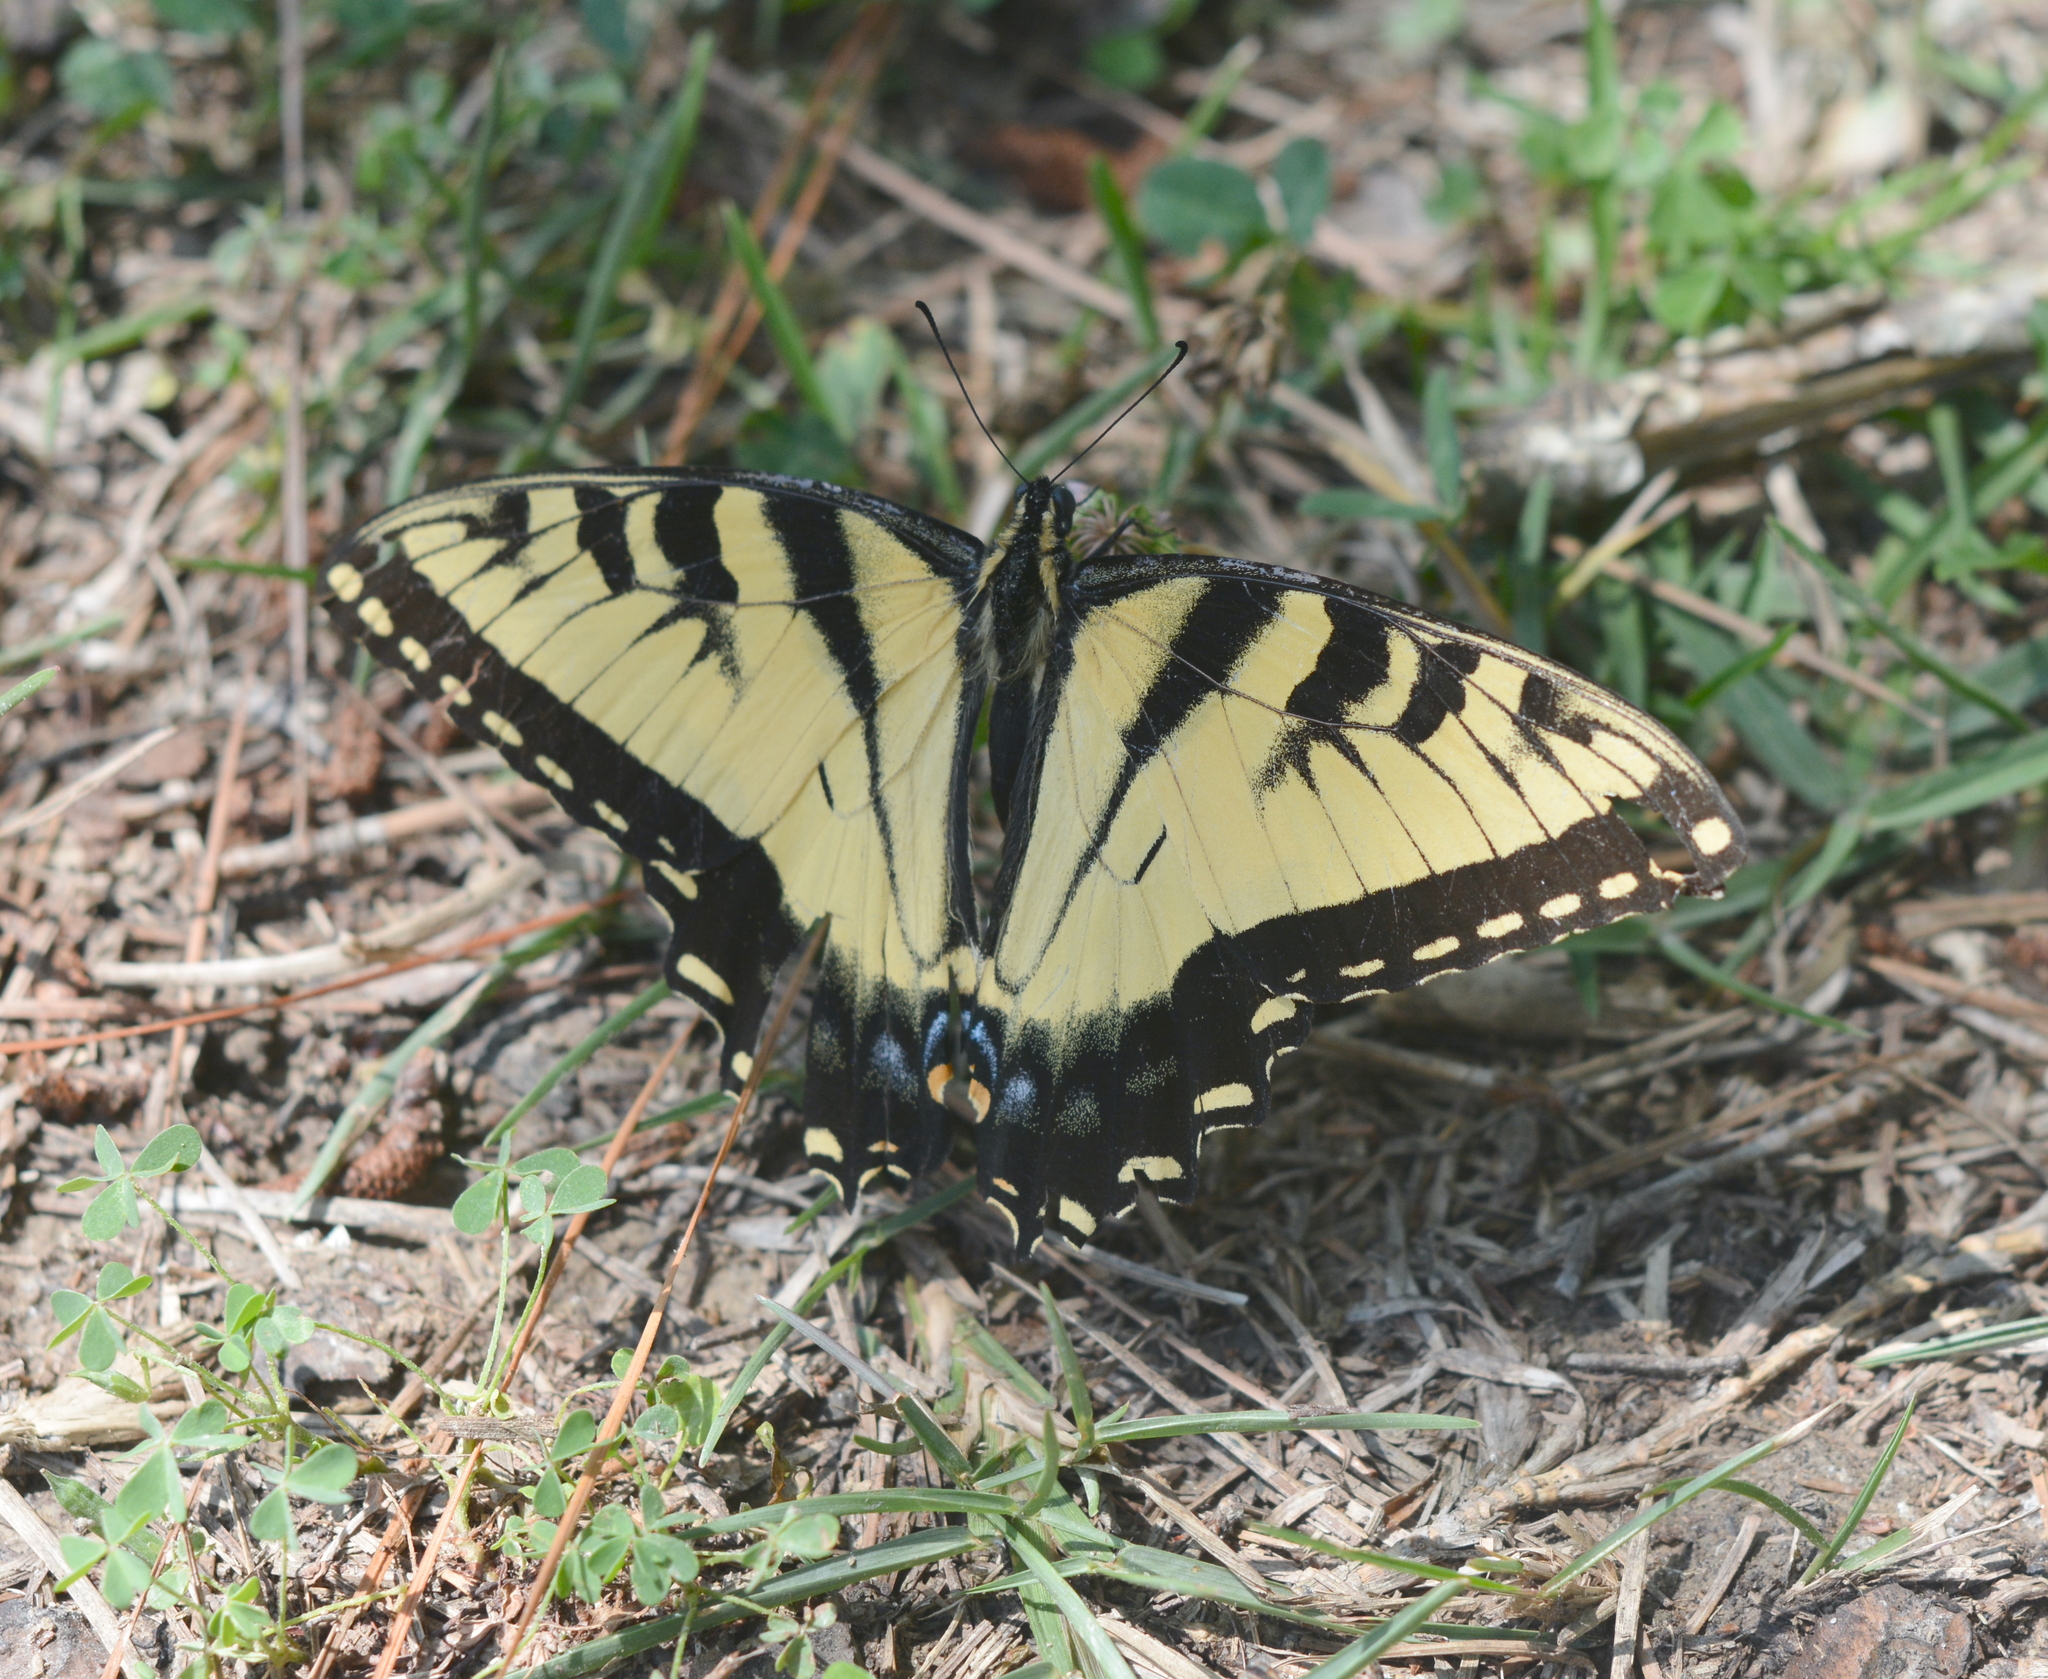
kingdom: Animalia
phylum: Arthropoda
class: Insecta
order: Lepidoptera
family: Papilionidae
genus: Papilio
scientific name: Papilio glaucus
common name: Tiger swallowtail
